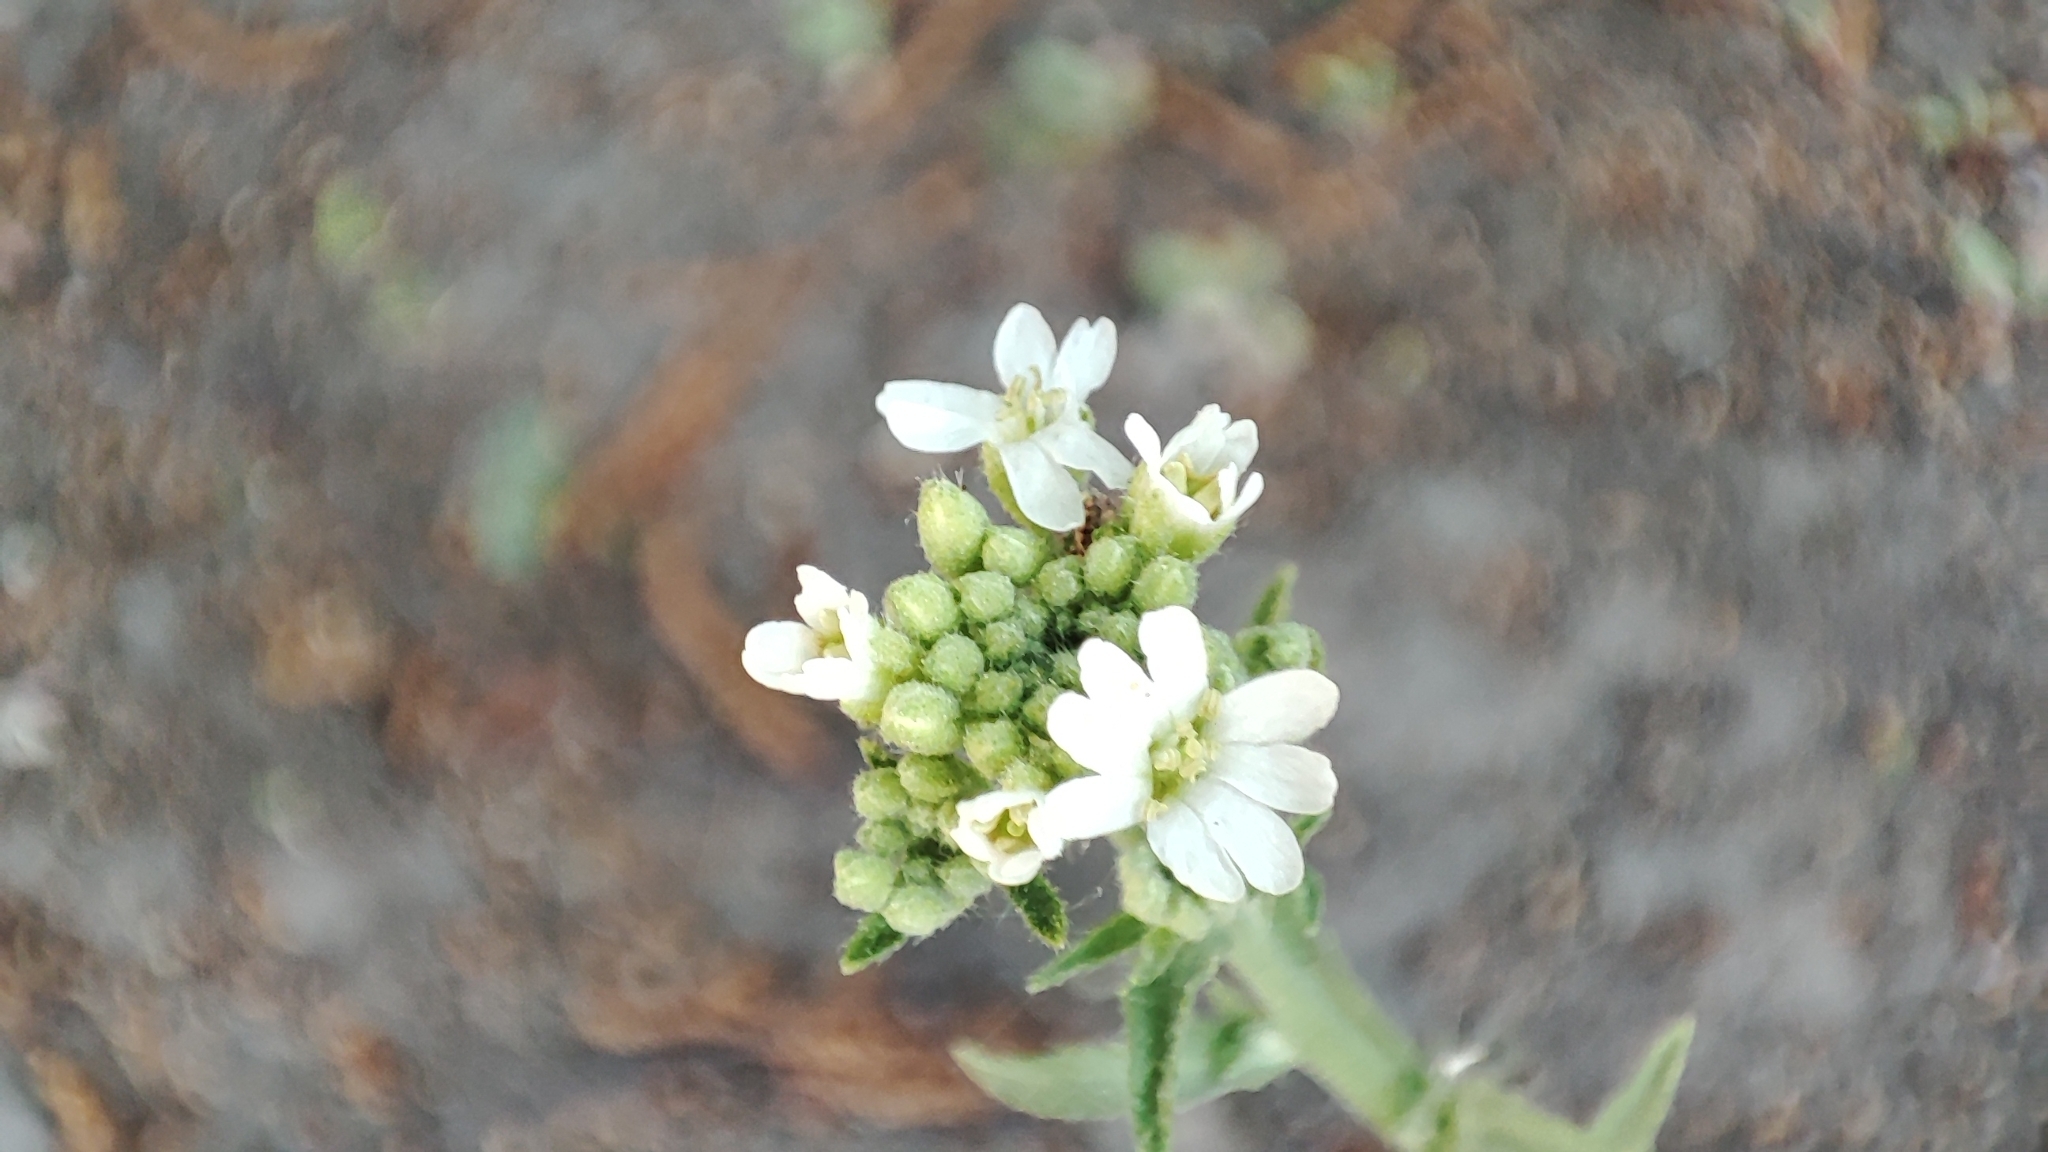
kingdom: Plantae
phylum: Tracheophyta
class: Magnoliopsida
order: Brassicales
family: Brassicaceae
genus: Berteroa
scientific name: Berteroa incana
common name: Hoary alison
